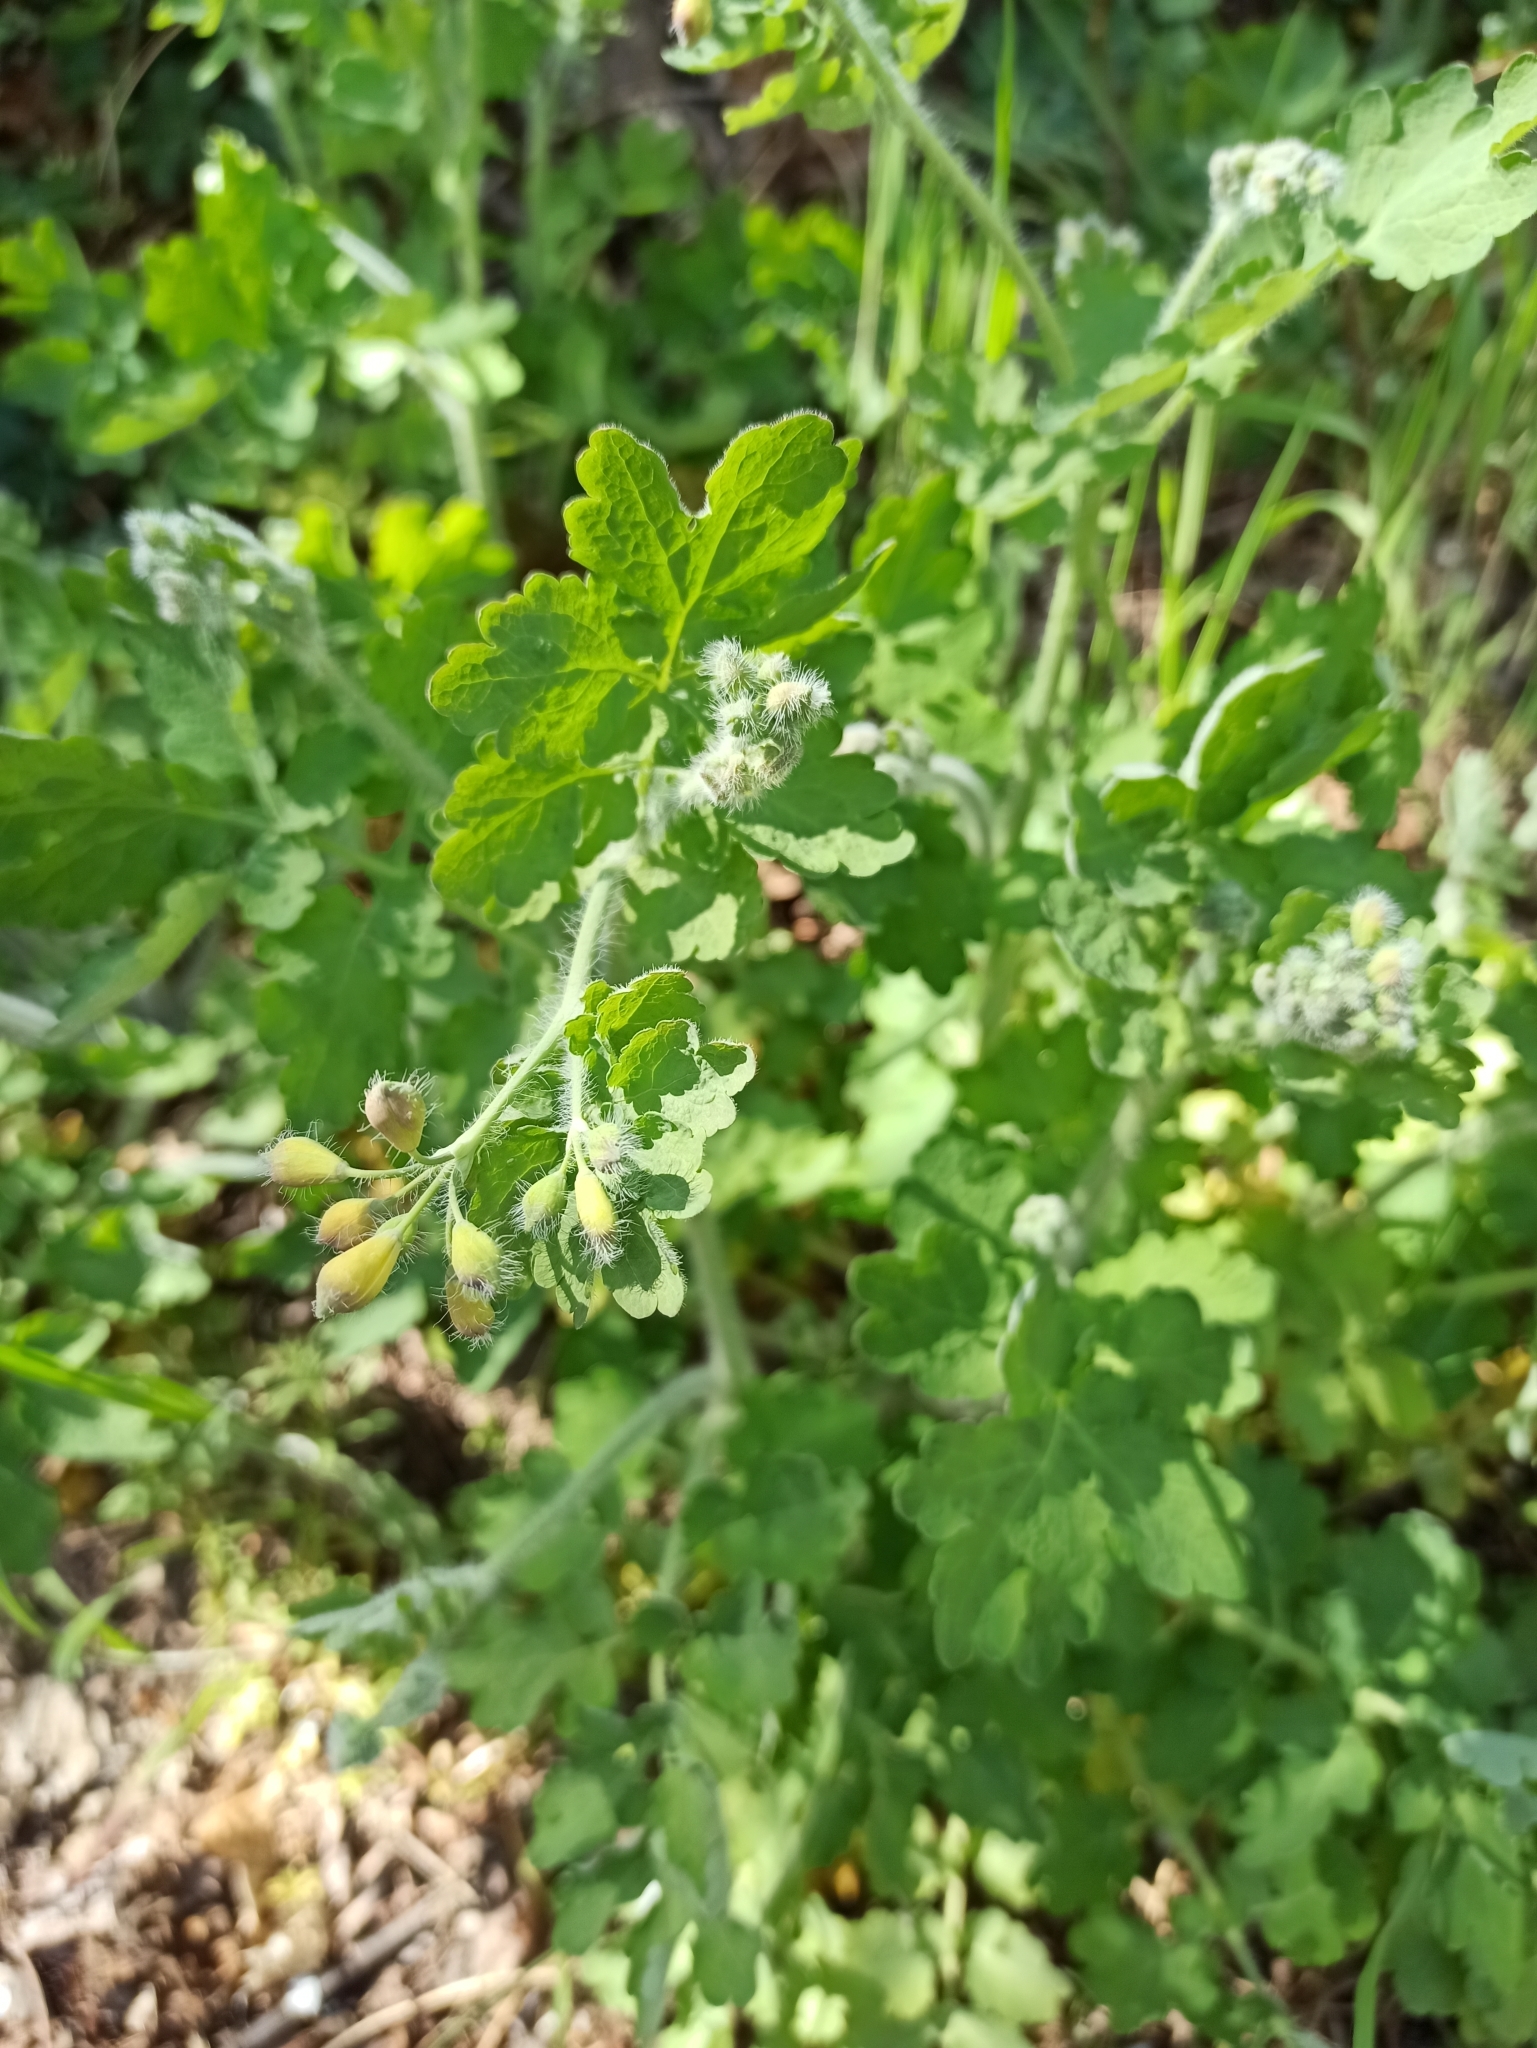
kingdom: Plantae
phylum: Tracheophyta
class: Magnoliopsida
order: Ranunculales
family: Papaveraceae
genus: Chelidonium
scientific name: Chelidonium majus
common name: Greater celandine
